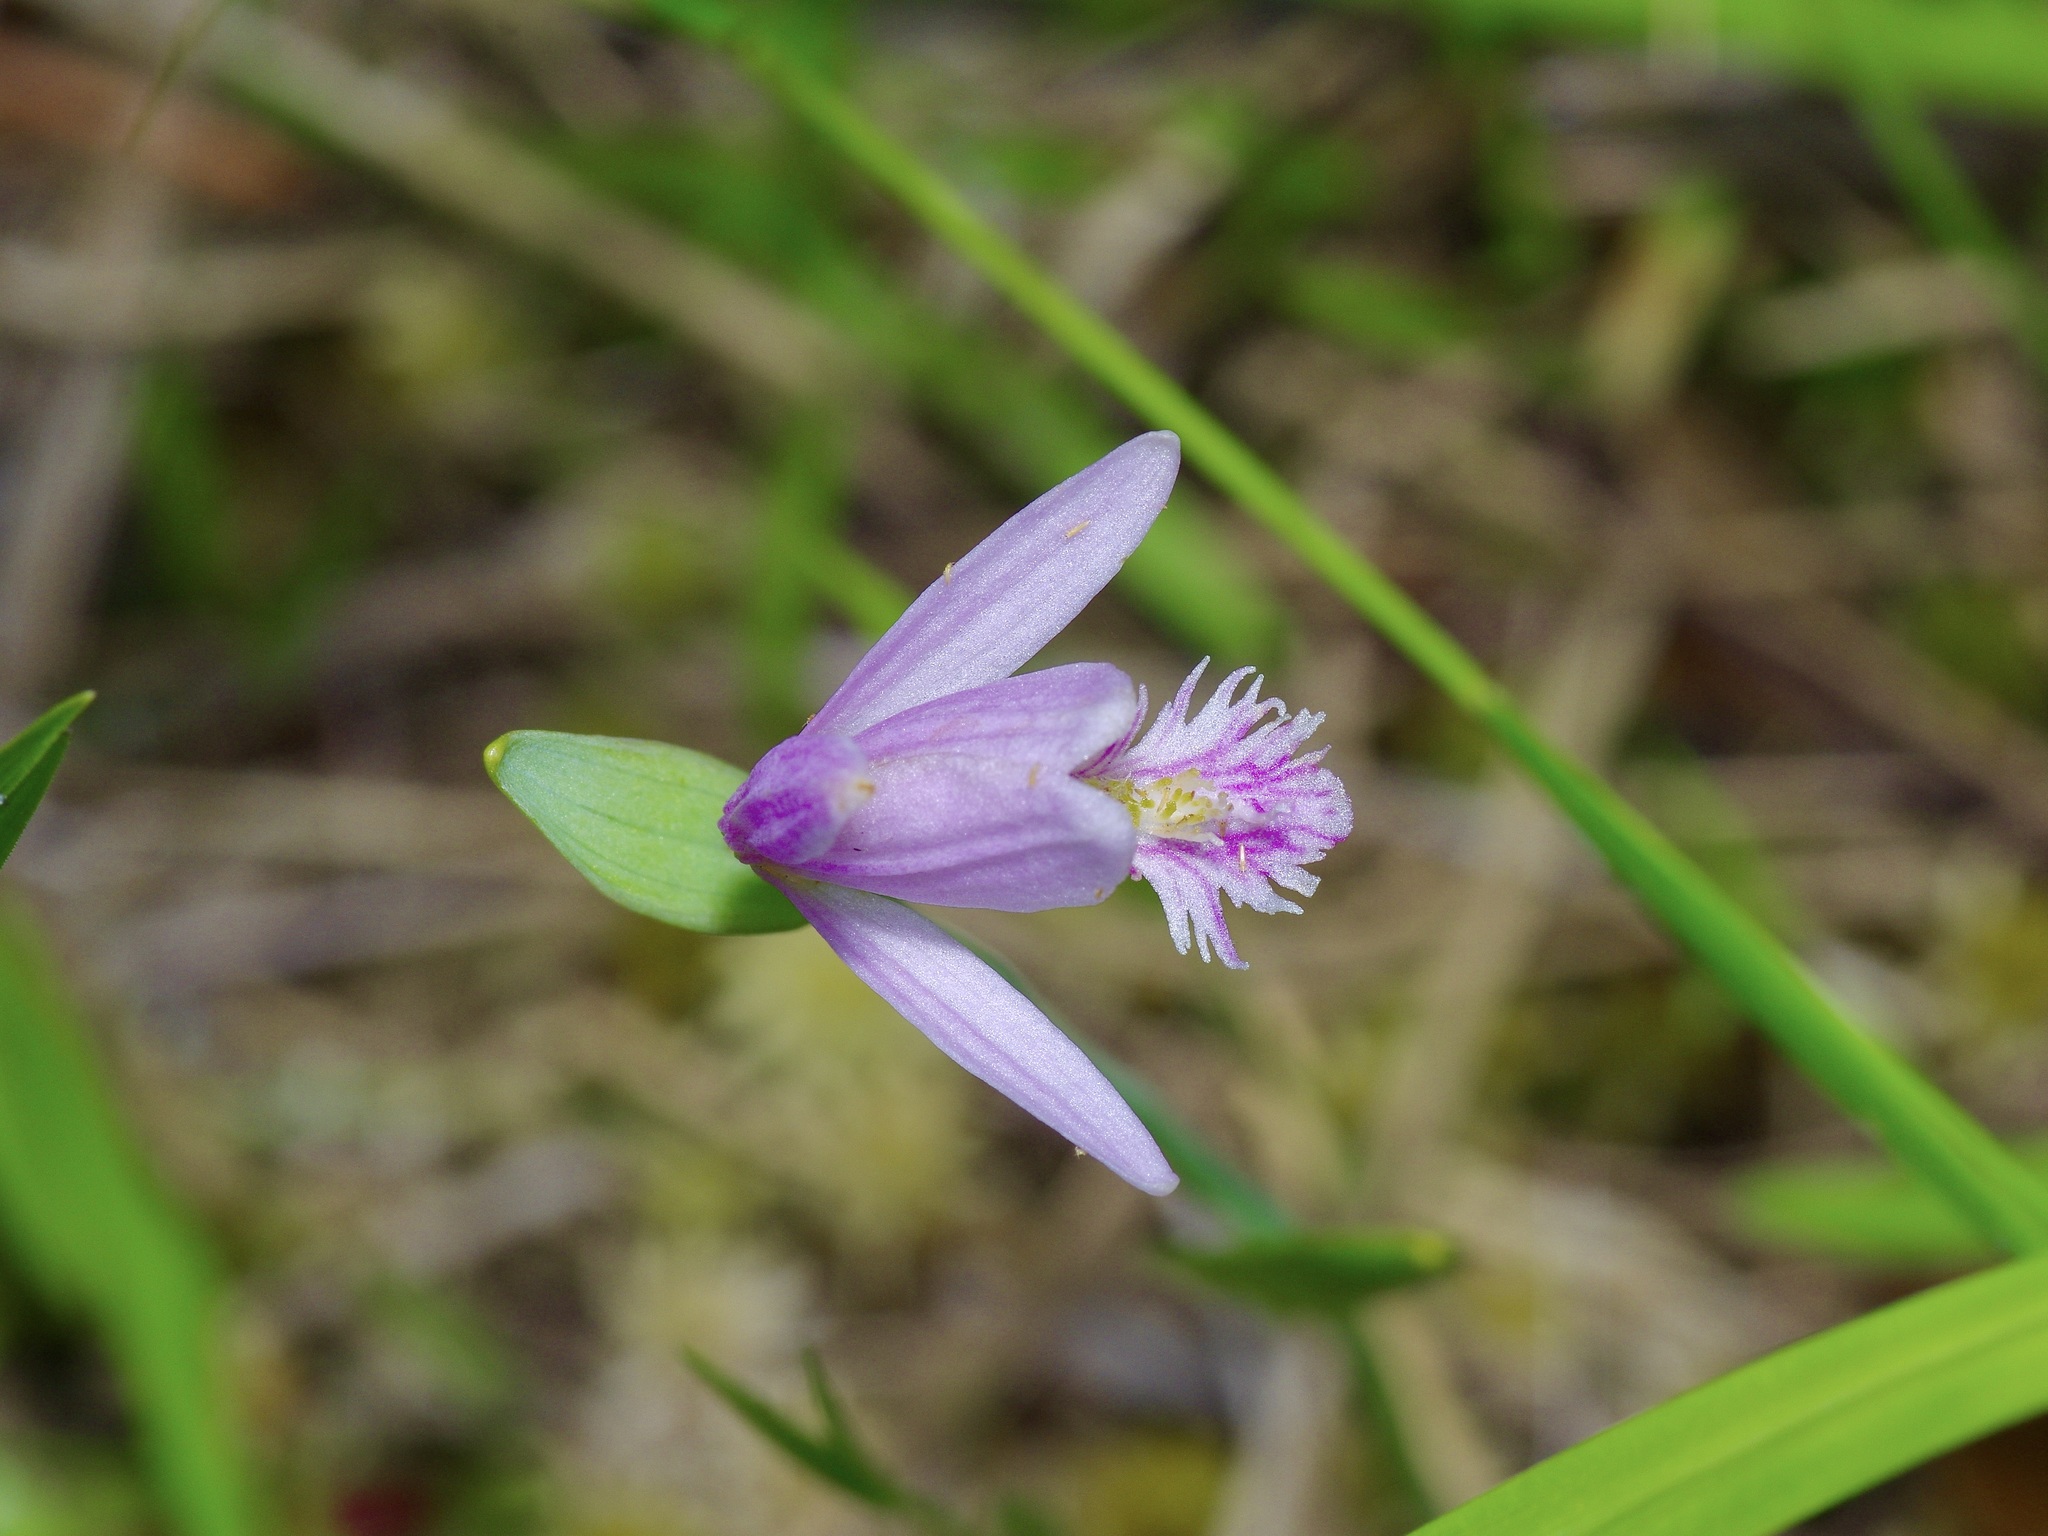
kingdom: Plantae
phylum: Tracheophyta
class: Liliopsida
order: Asparagales
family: Orchidaceae
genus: Pogonia
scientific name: Pogonia ophioglossoides
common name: Rose pogonia
